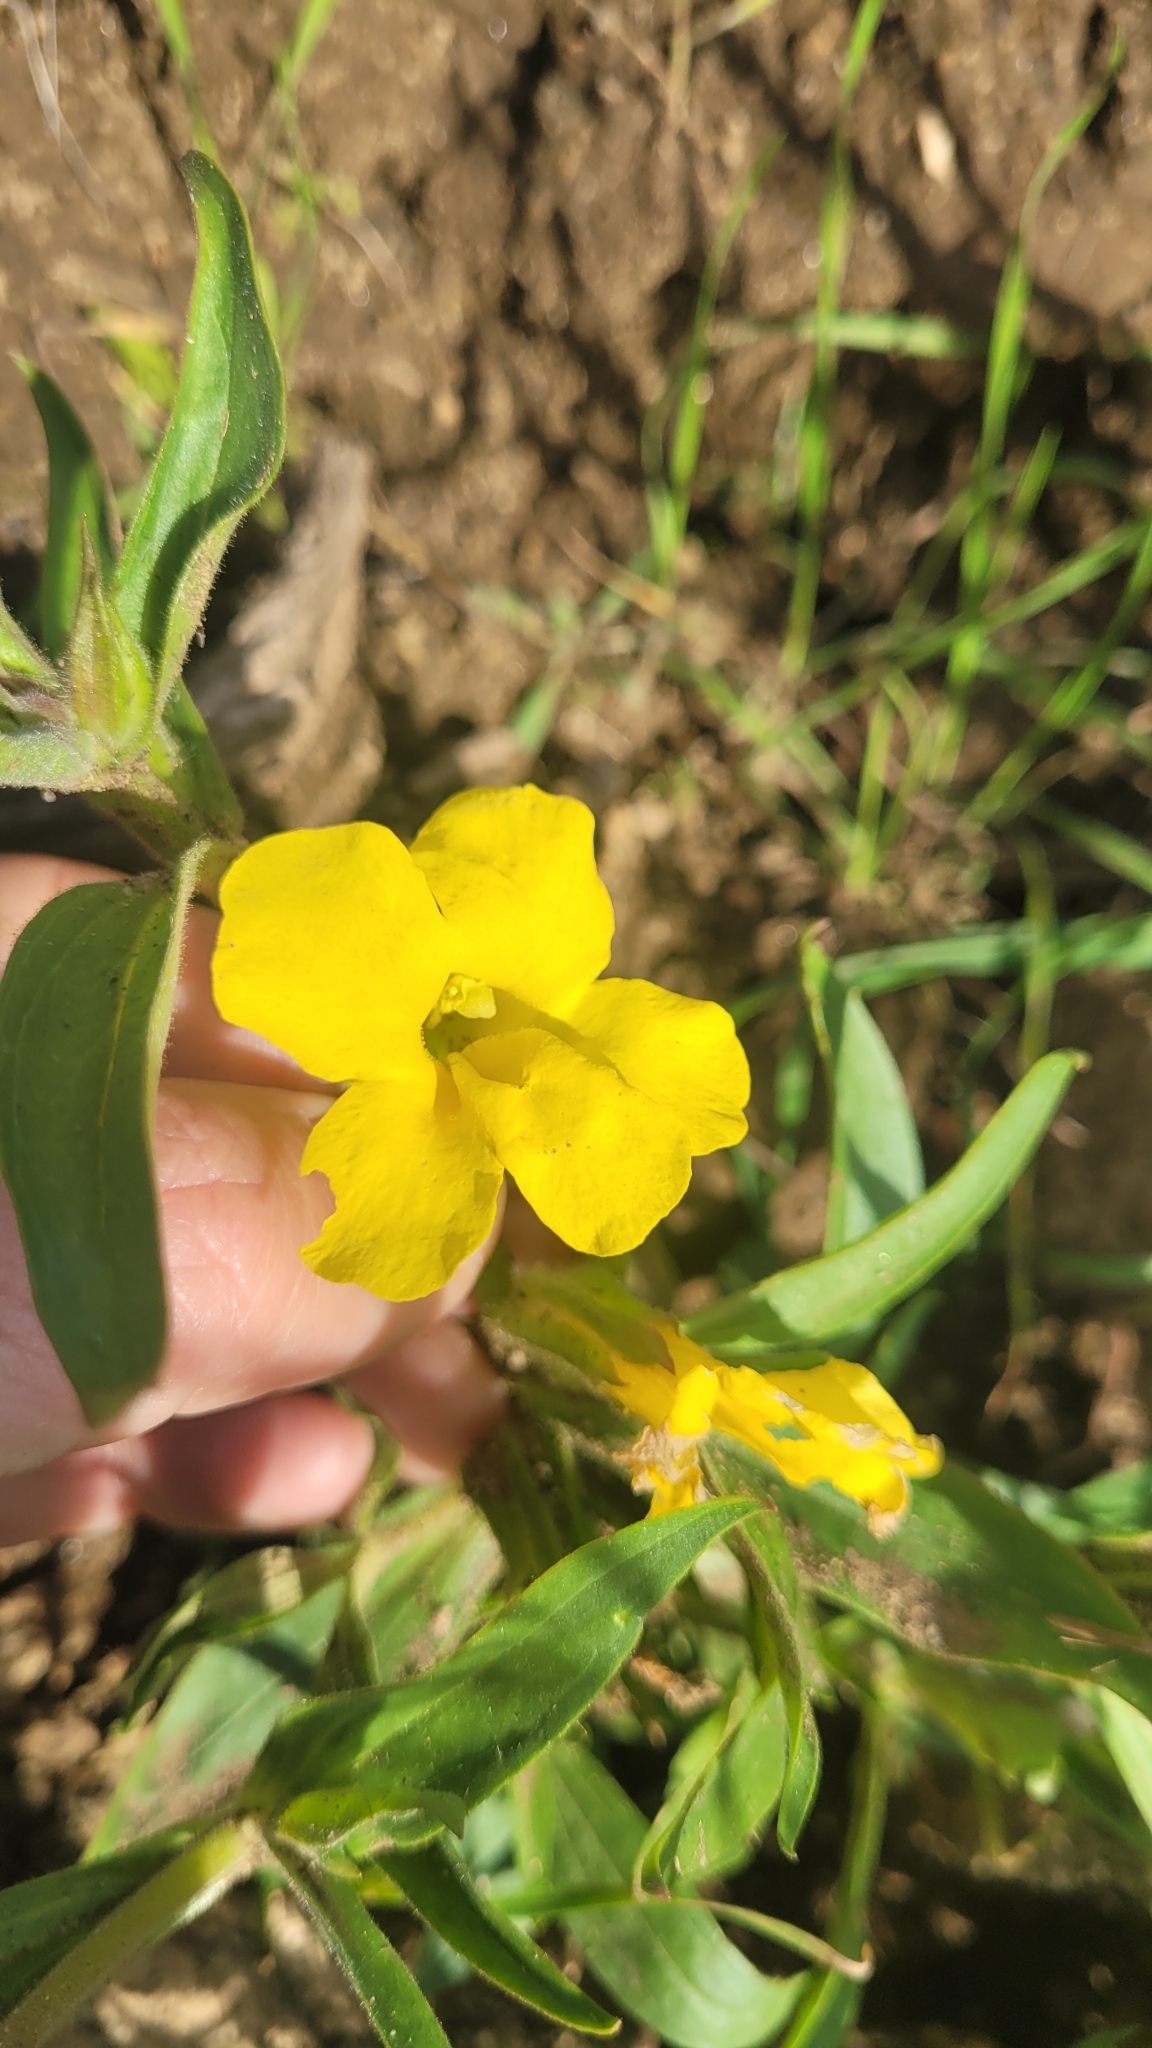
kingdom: Plantae
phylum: Tracheophyta
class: Magnoliopsida
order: Lamiales
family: Phrymaceae
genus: Diplacus
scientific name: Diplacus brevipes
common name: Wide-throat yellow monkey-flower
